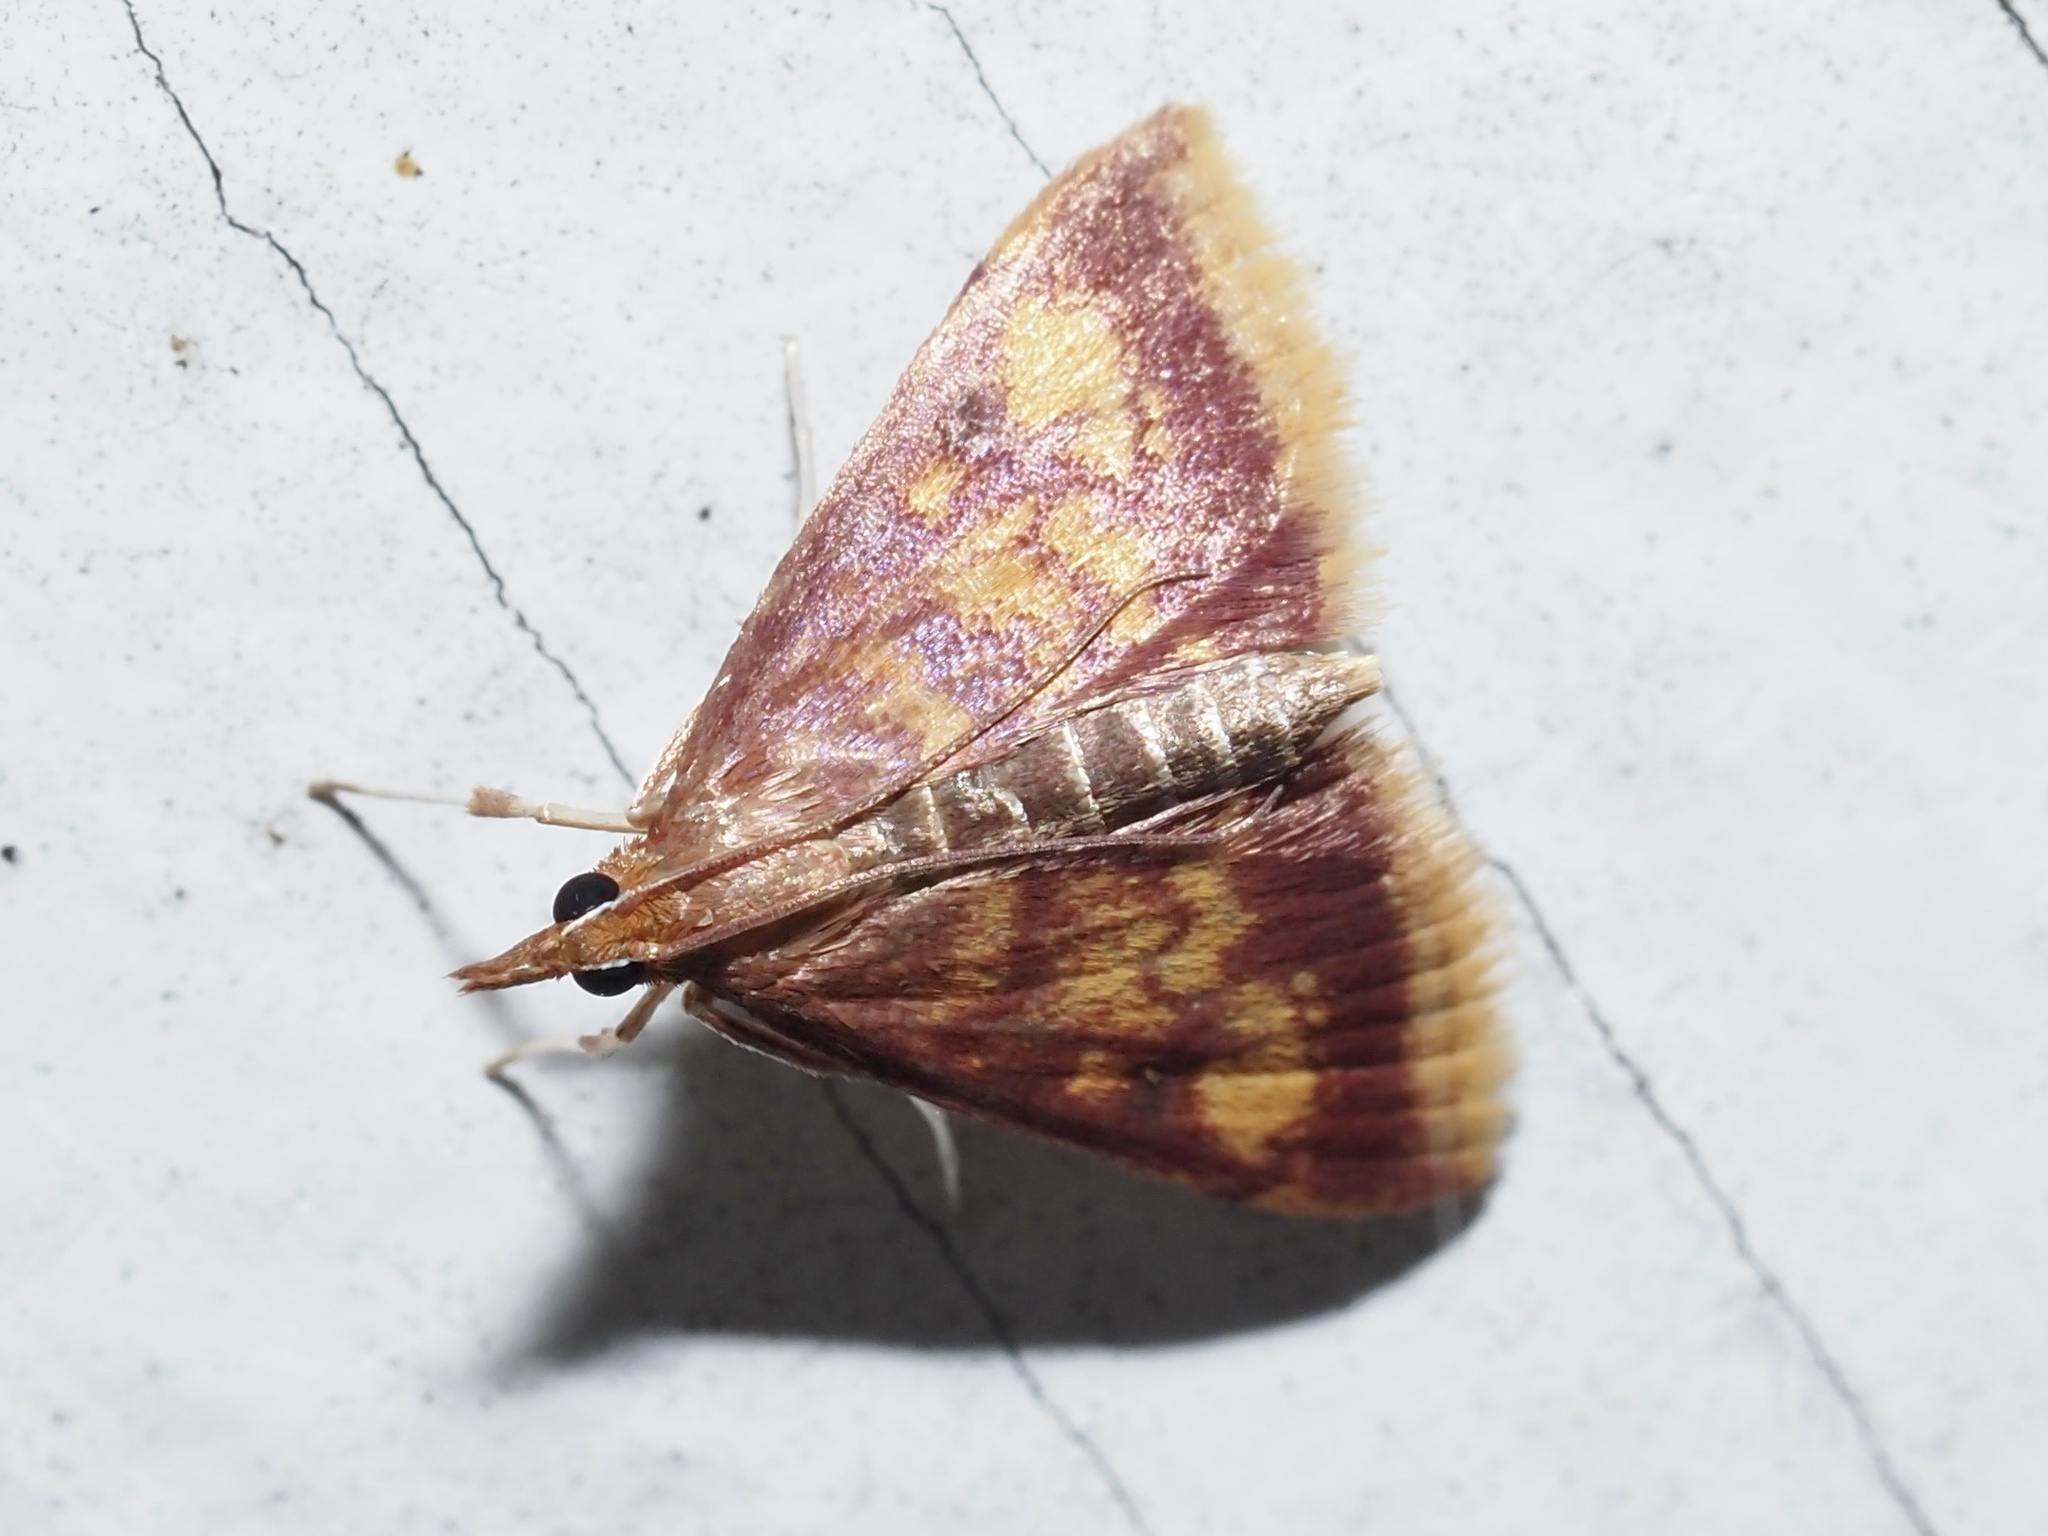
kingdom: Animalia
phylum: Arthropoda
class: Insecta
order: Lepidoptera
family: Crambidae
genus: Pyrausta
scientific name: Pyrausta acrionalis
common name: Mint-loving pyrausta moth
